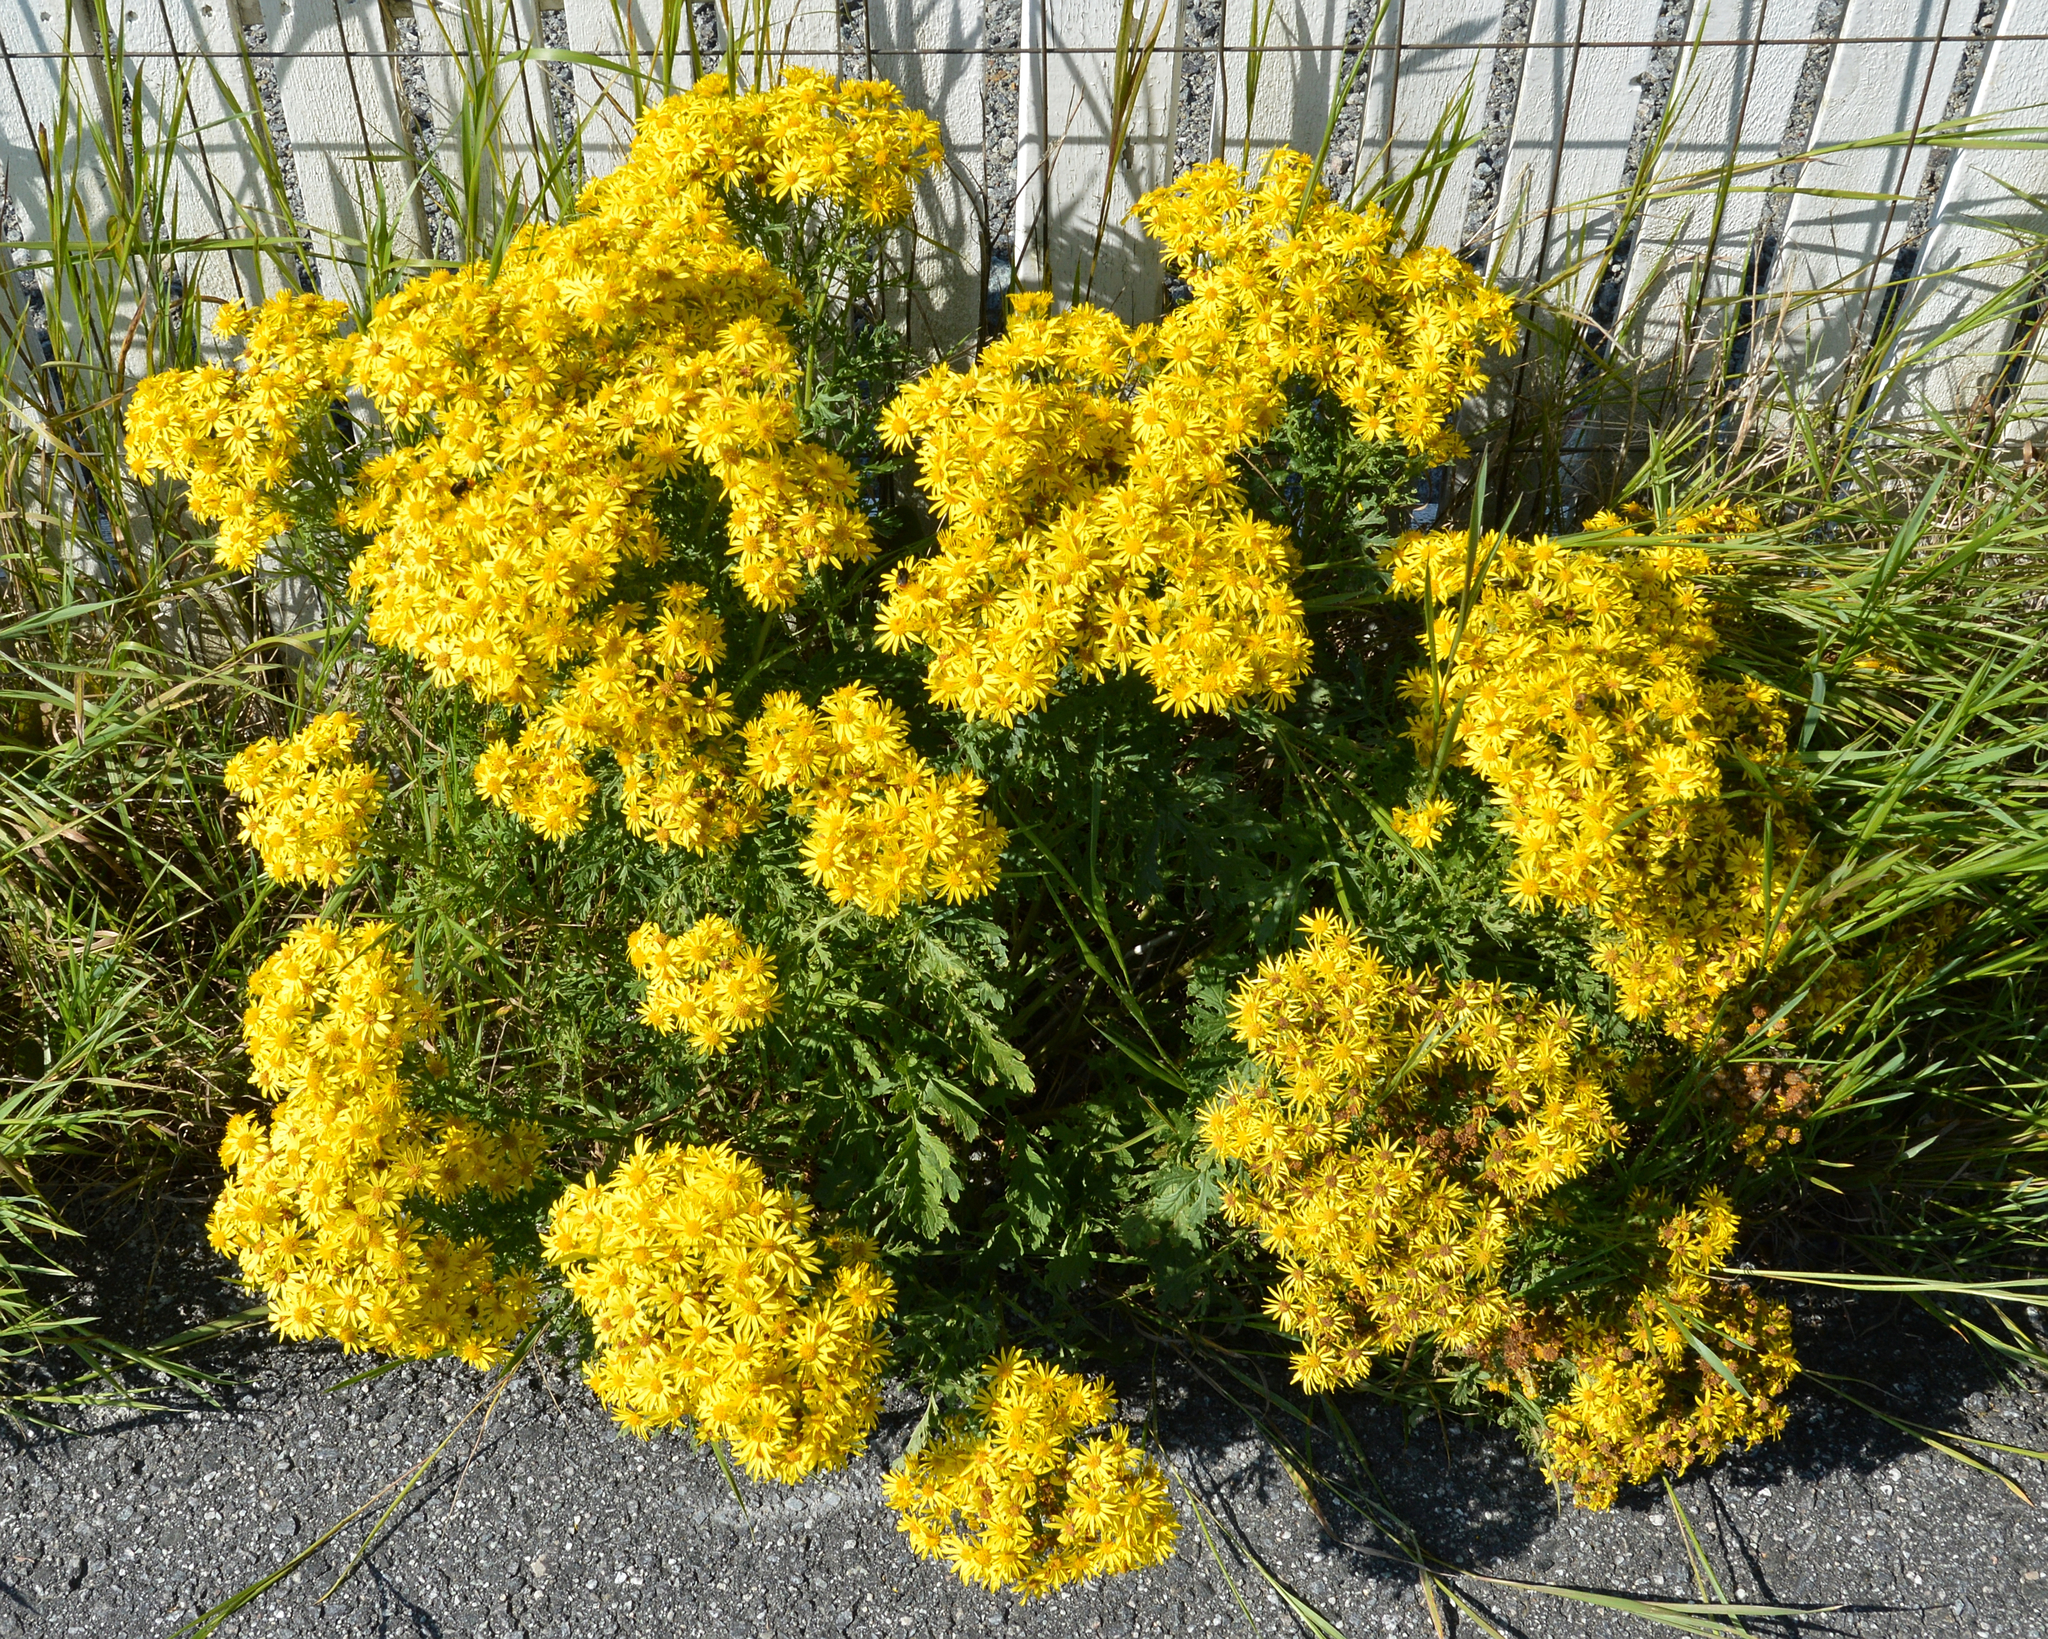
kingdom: Plantae
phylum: Tracheophyta
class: Magnoliopsida
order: Asterales
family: Asteraceae
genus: Jacobaea
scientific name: Jacobaea vulgaris
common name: Stinking willie
